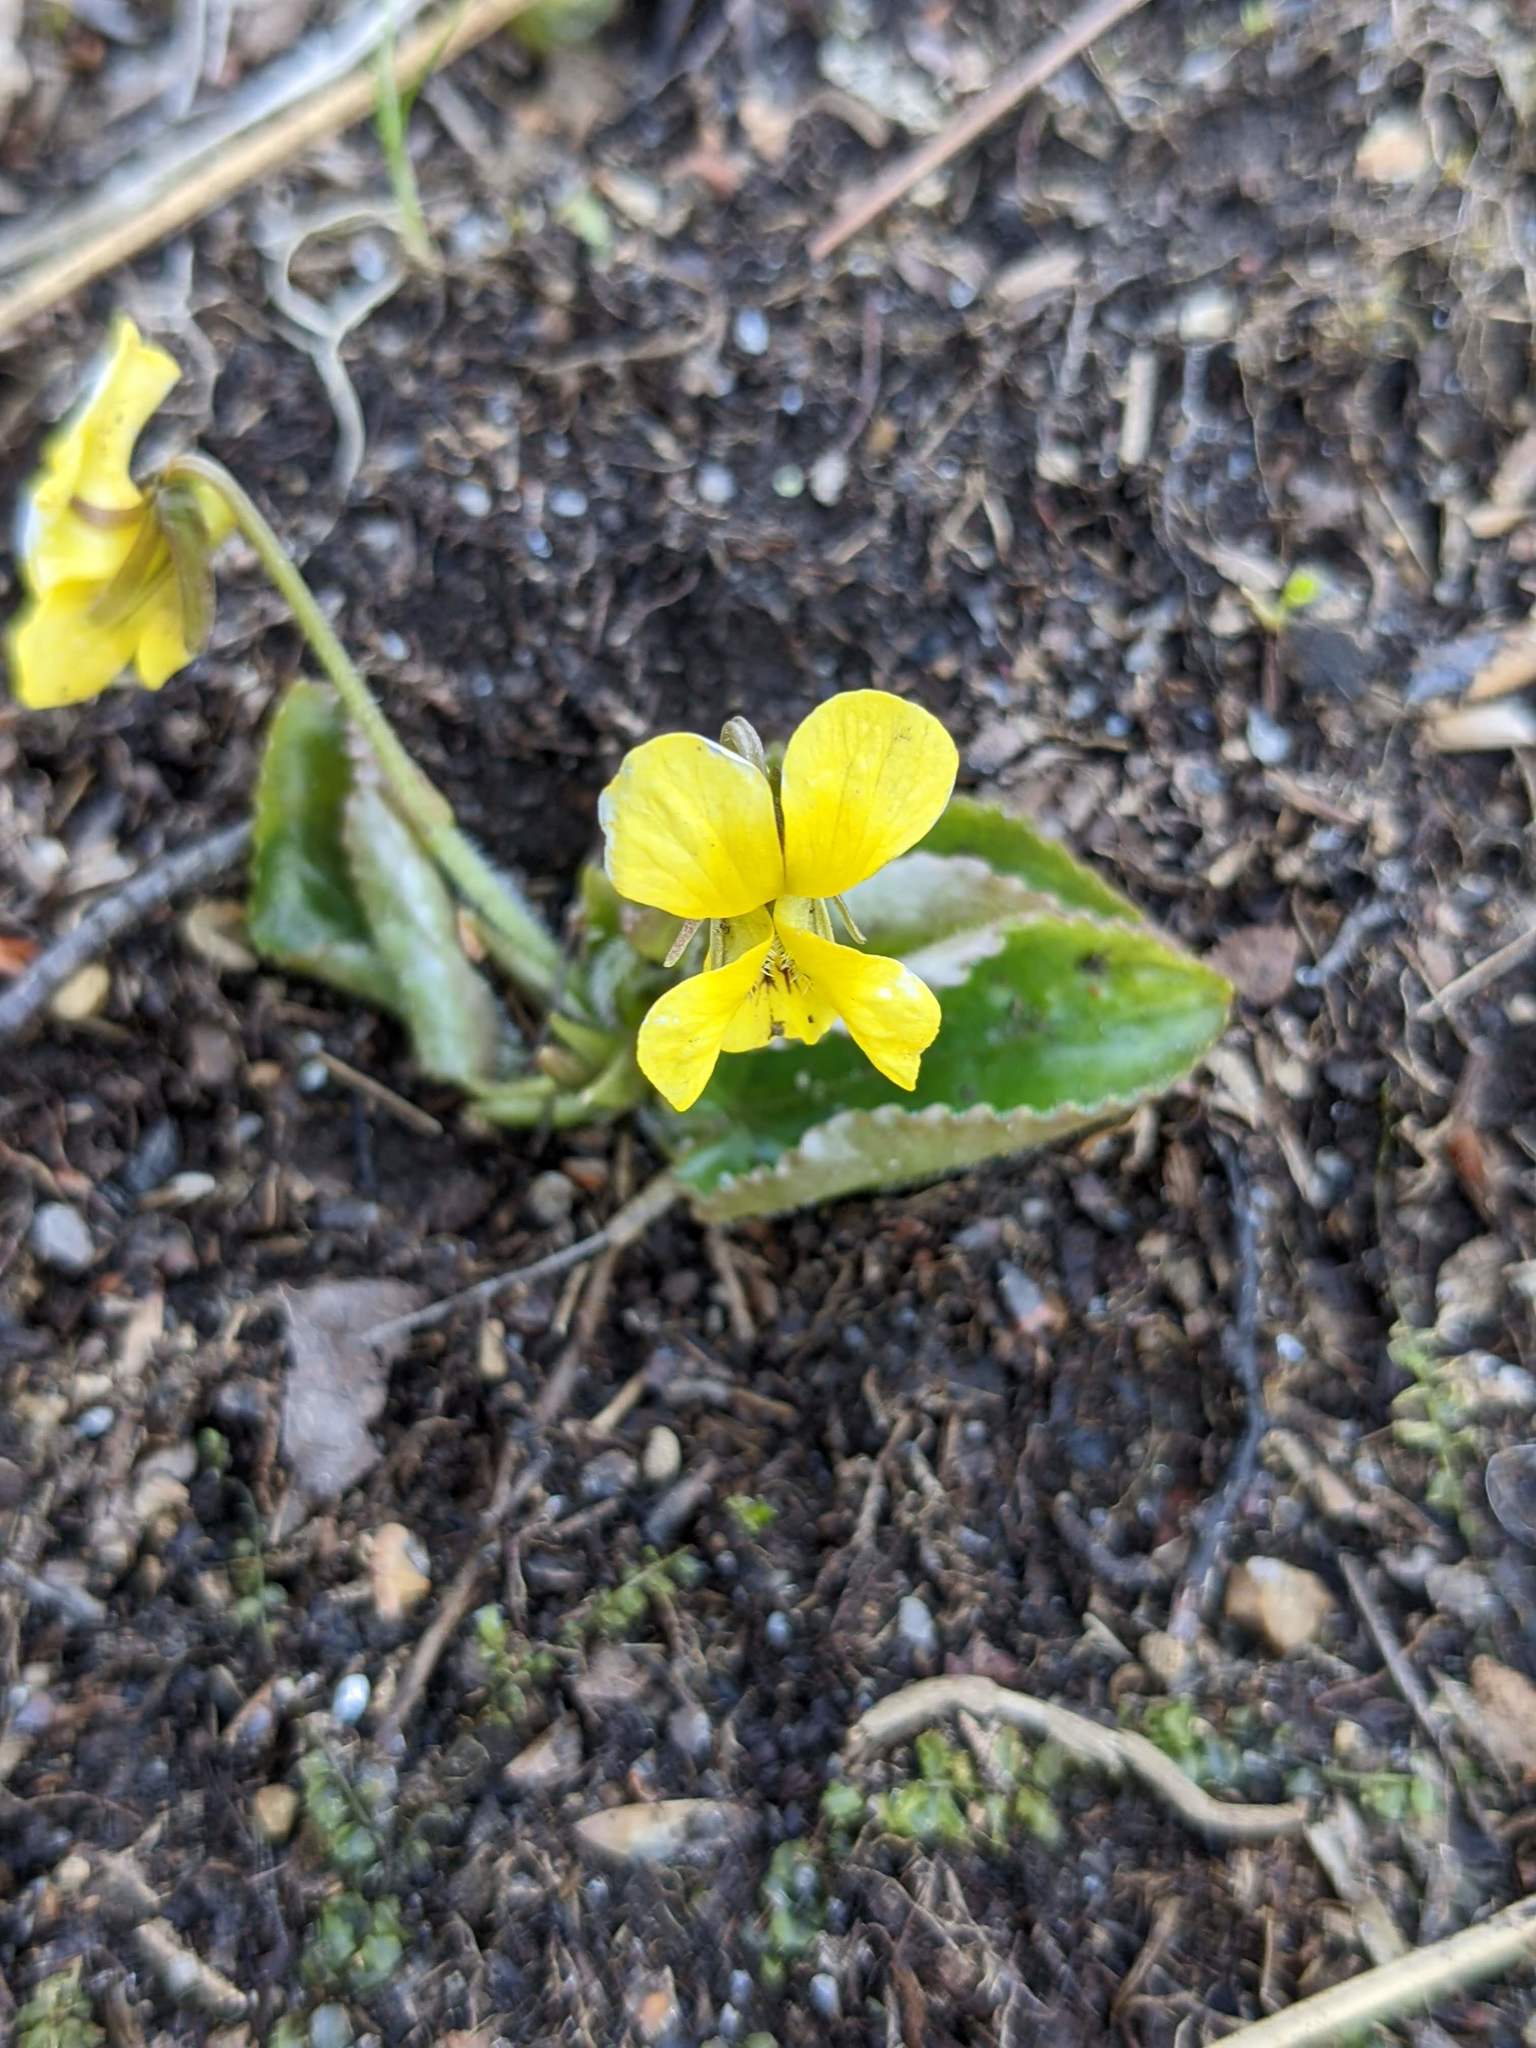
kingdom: Plantae
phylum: Tracheophyta
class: Magnoliopsida
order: Malpighiales
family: Violaceae
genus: Viola
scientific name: Viola rotundifolia
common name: Early yellow violet
